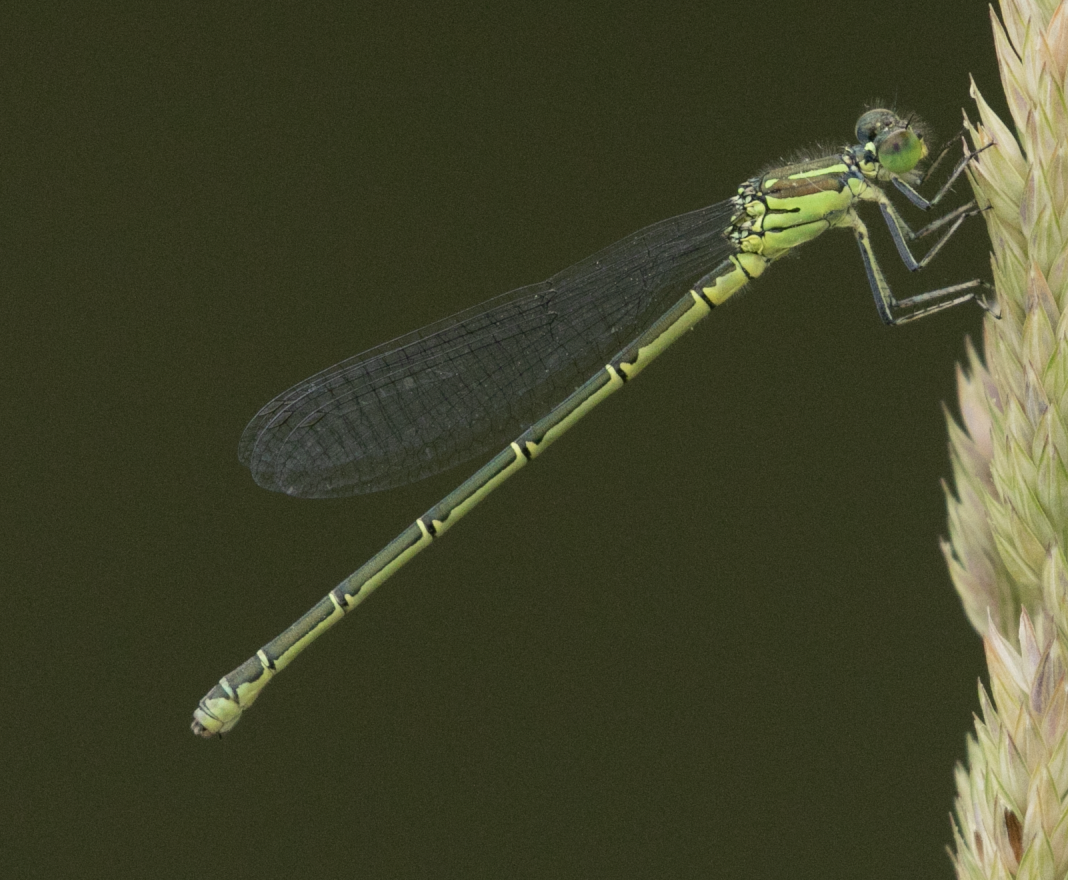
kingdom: Animalia
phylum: Arthropoda
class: Insecta
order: Odonata
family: Coenagrionidae
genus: Erythromma
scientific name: Erythromma viridulum
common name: Small red-eyed damselfly
